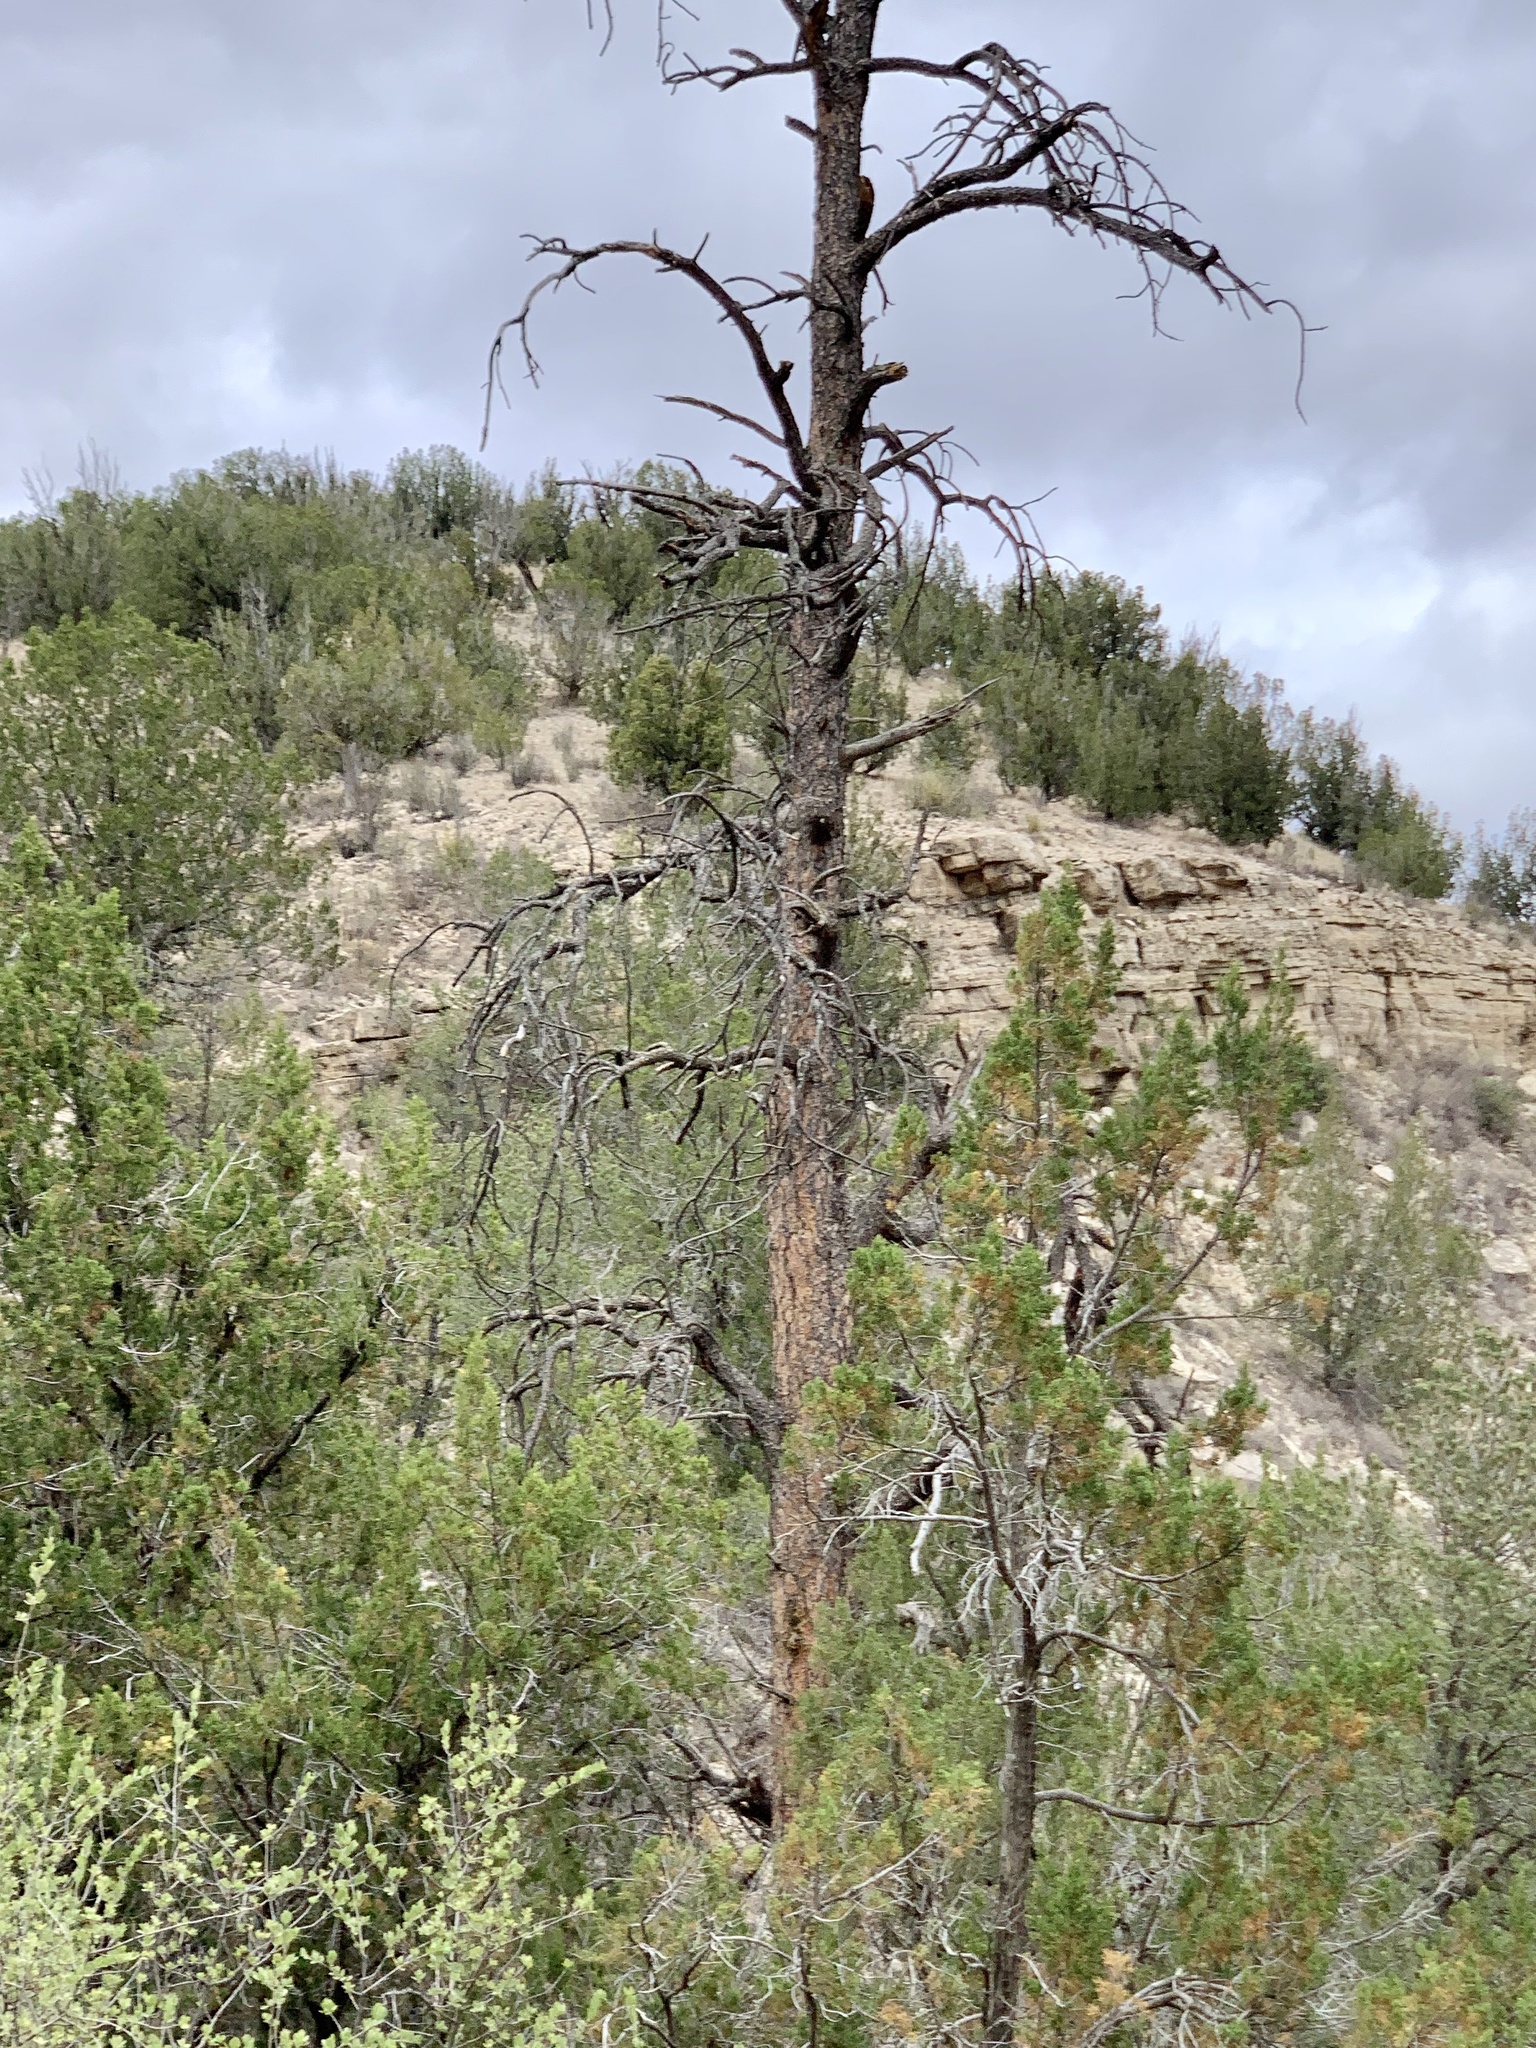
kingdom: Plantae
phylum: Tracheophyta
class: Pinopsida
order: Pinales
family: Pinaceae
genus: Pinus
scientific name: Pinus ponderosa
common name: Western yellow-pine
